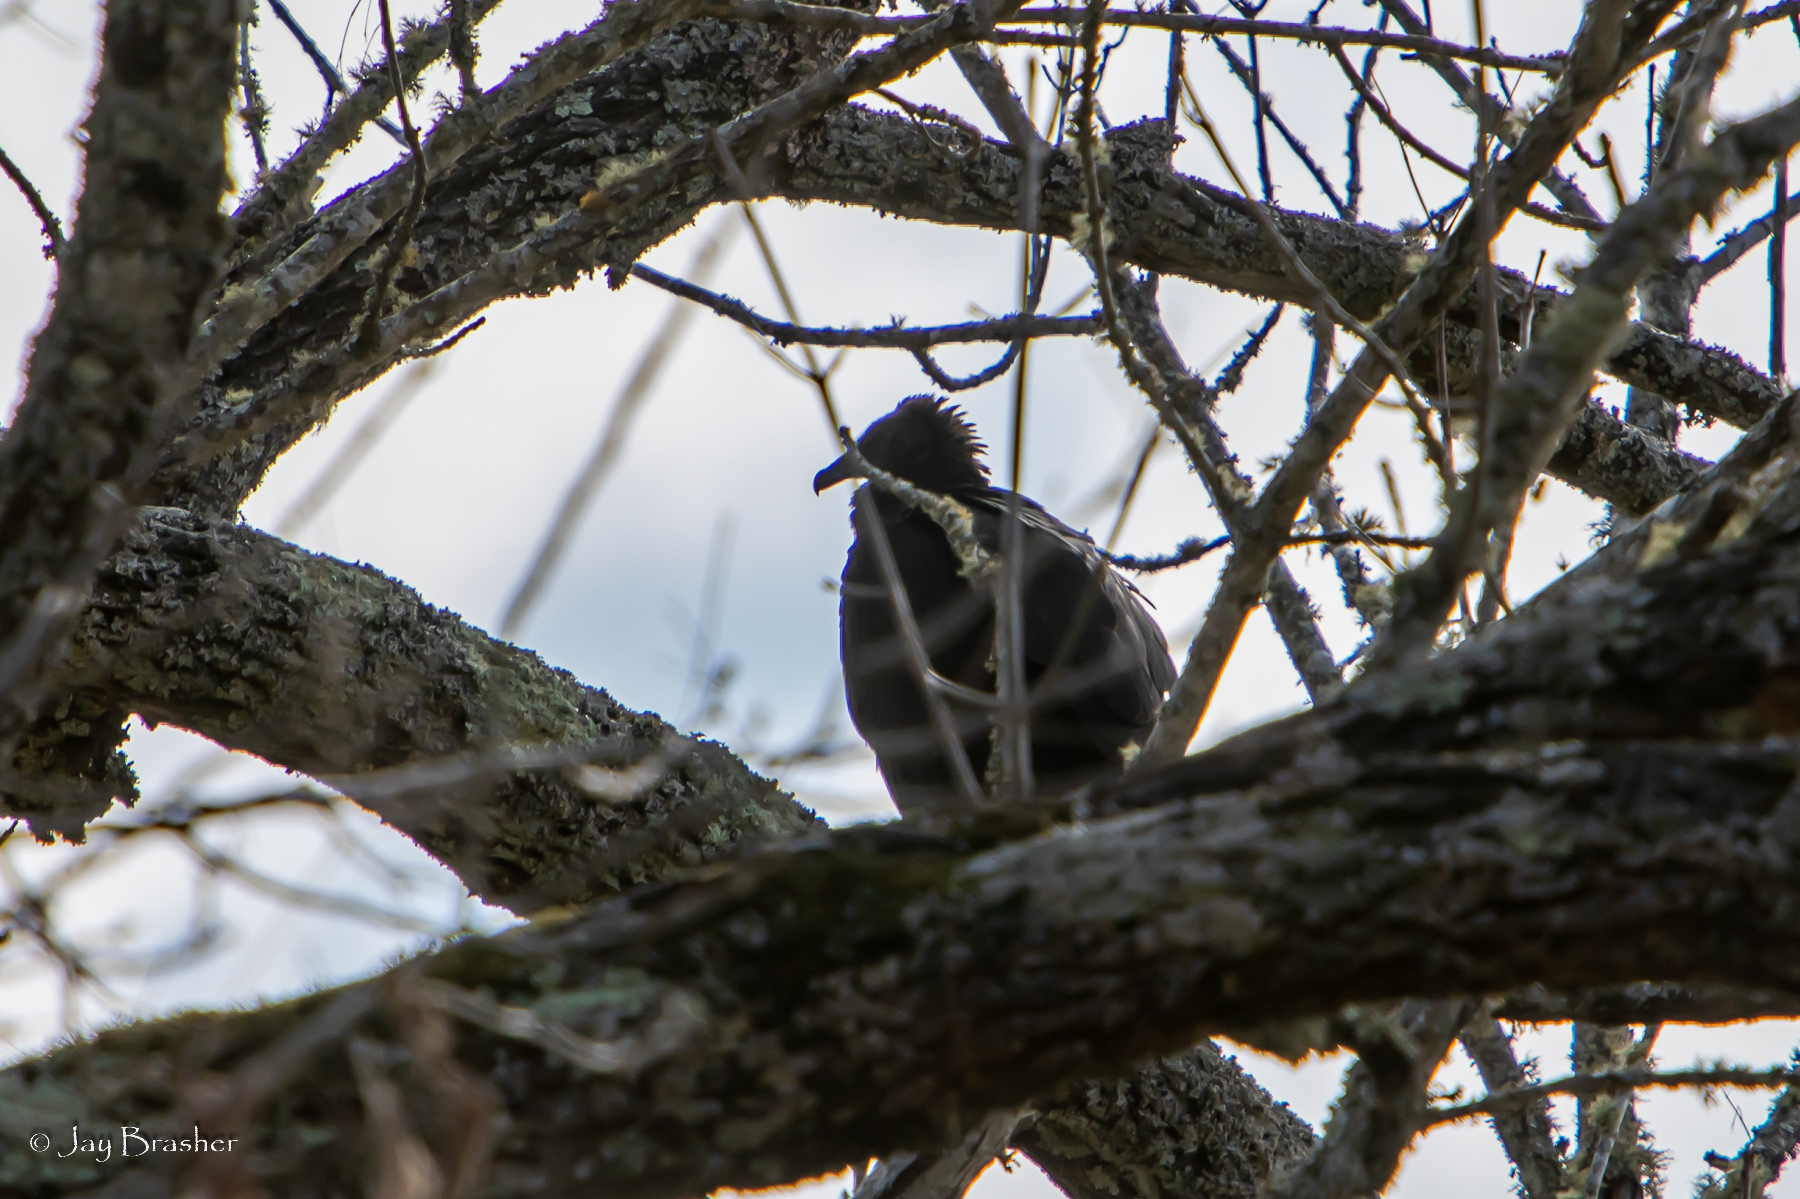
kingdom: Animalia
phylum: Chordata
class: Aves
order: Accipitriformes
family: Cathartidae
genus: Coragyps
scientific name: Coragyps atratus
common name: Black vulture
